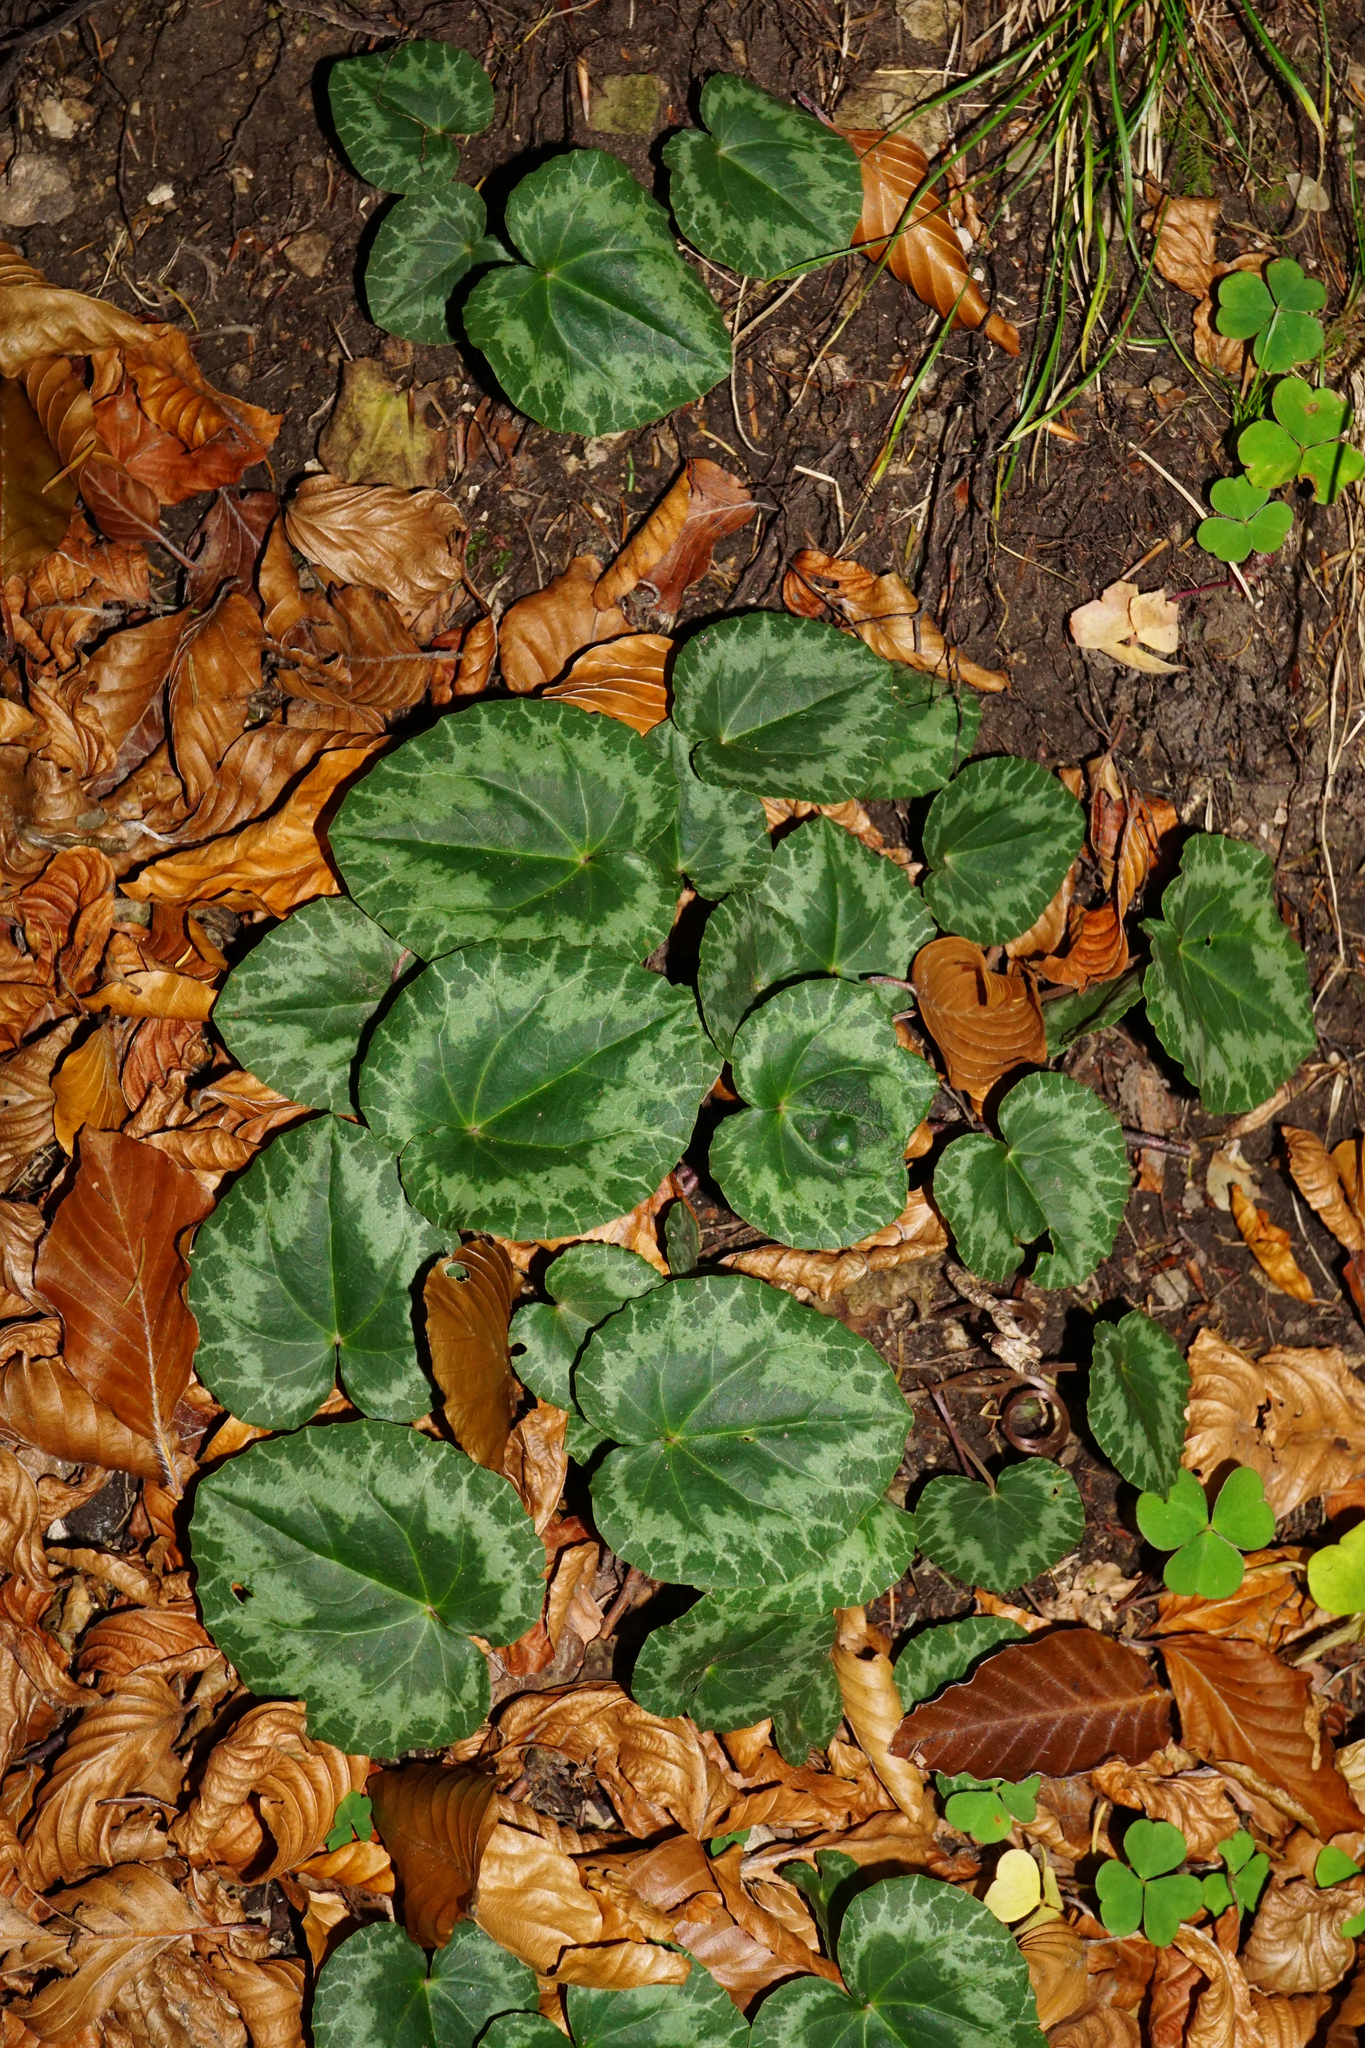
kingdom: Plantae
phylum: Tracheophyta
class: Magnoliopsida
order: Ericales
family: Primulaceae
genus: Cyclamen
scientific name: Cyclamen purpurascens
